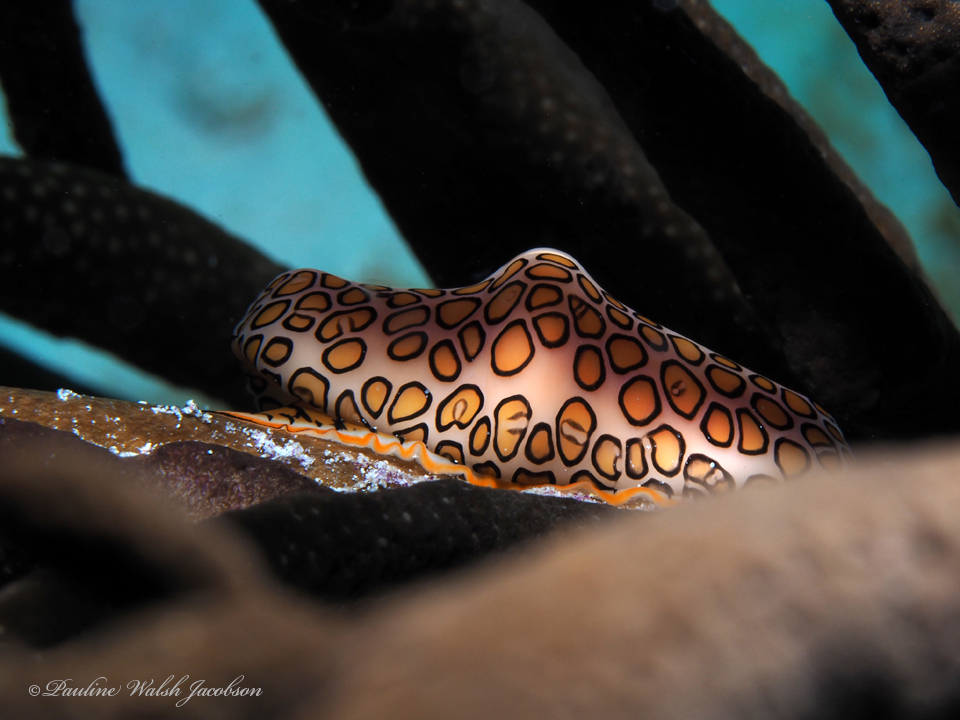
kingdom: Animalia
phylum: Mollusca
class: Gastropoda
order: Littorinimorpha
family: Ovulidae
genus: Cyphoma
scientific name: Cyphoma gibbosum
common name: Flamingo tongue
